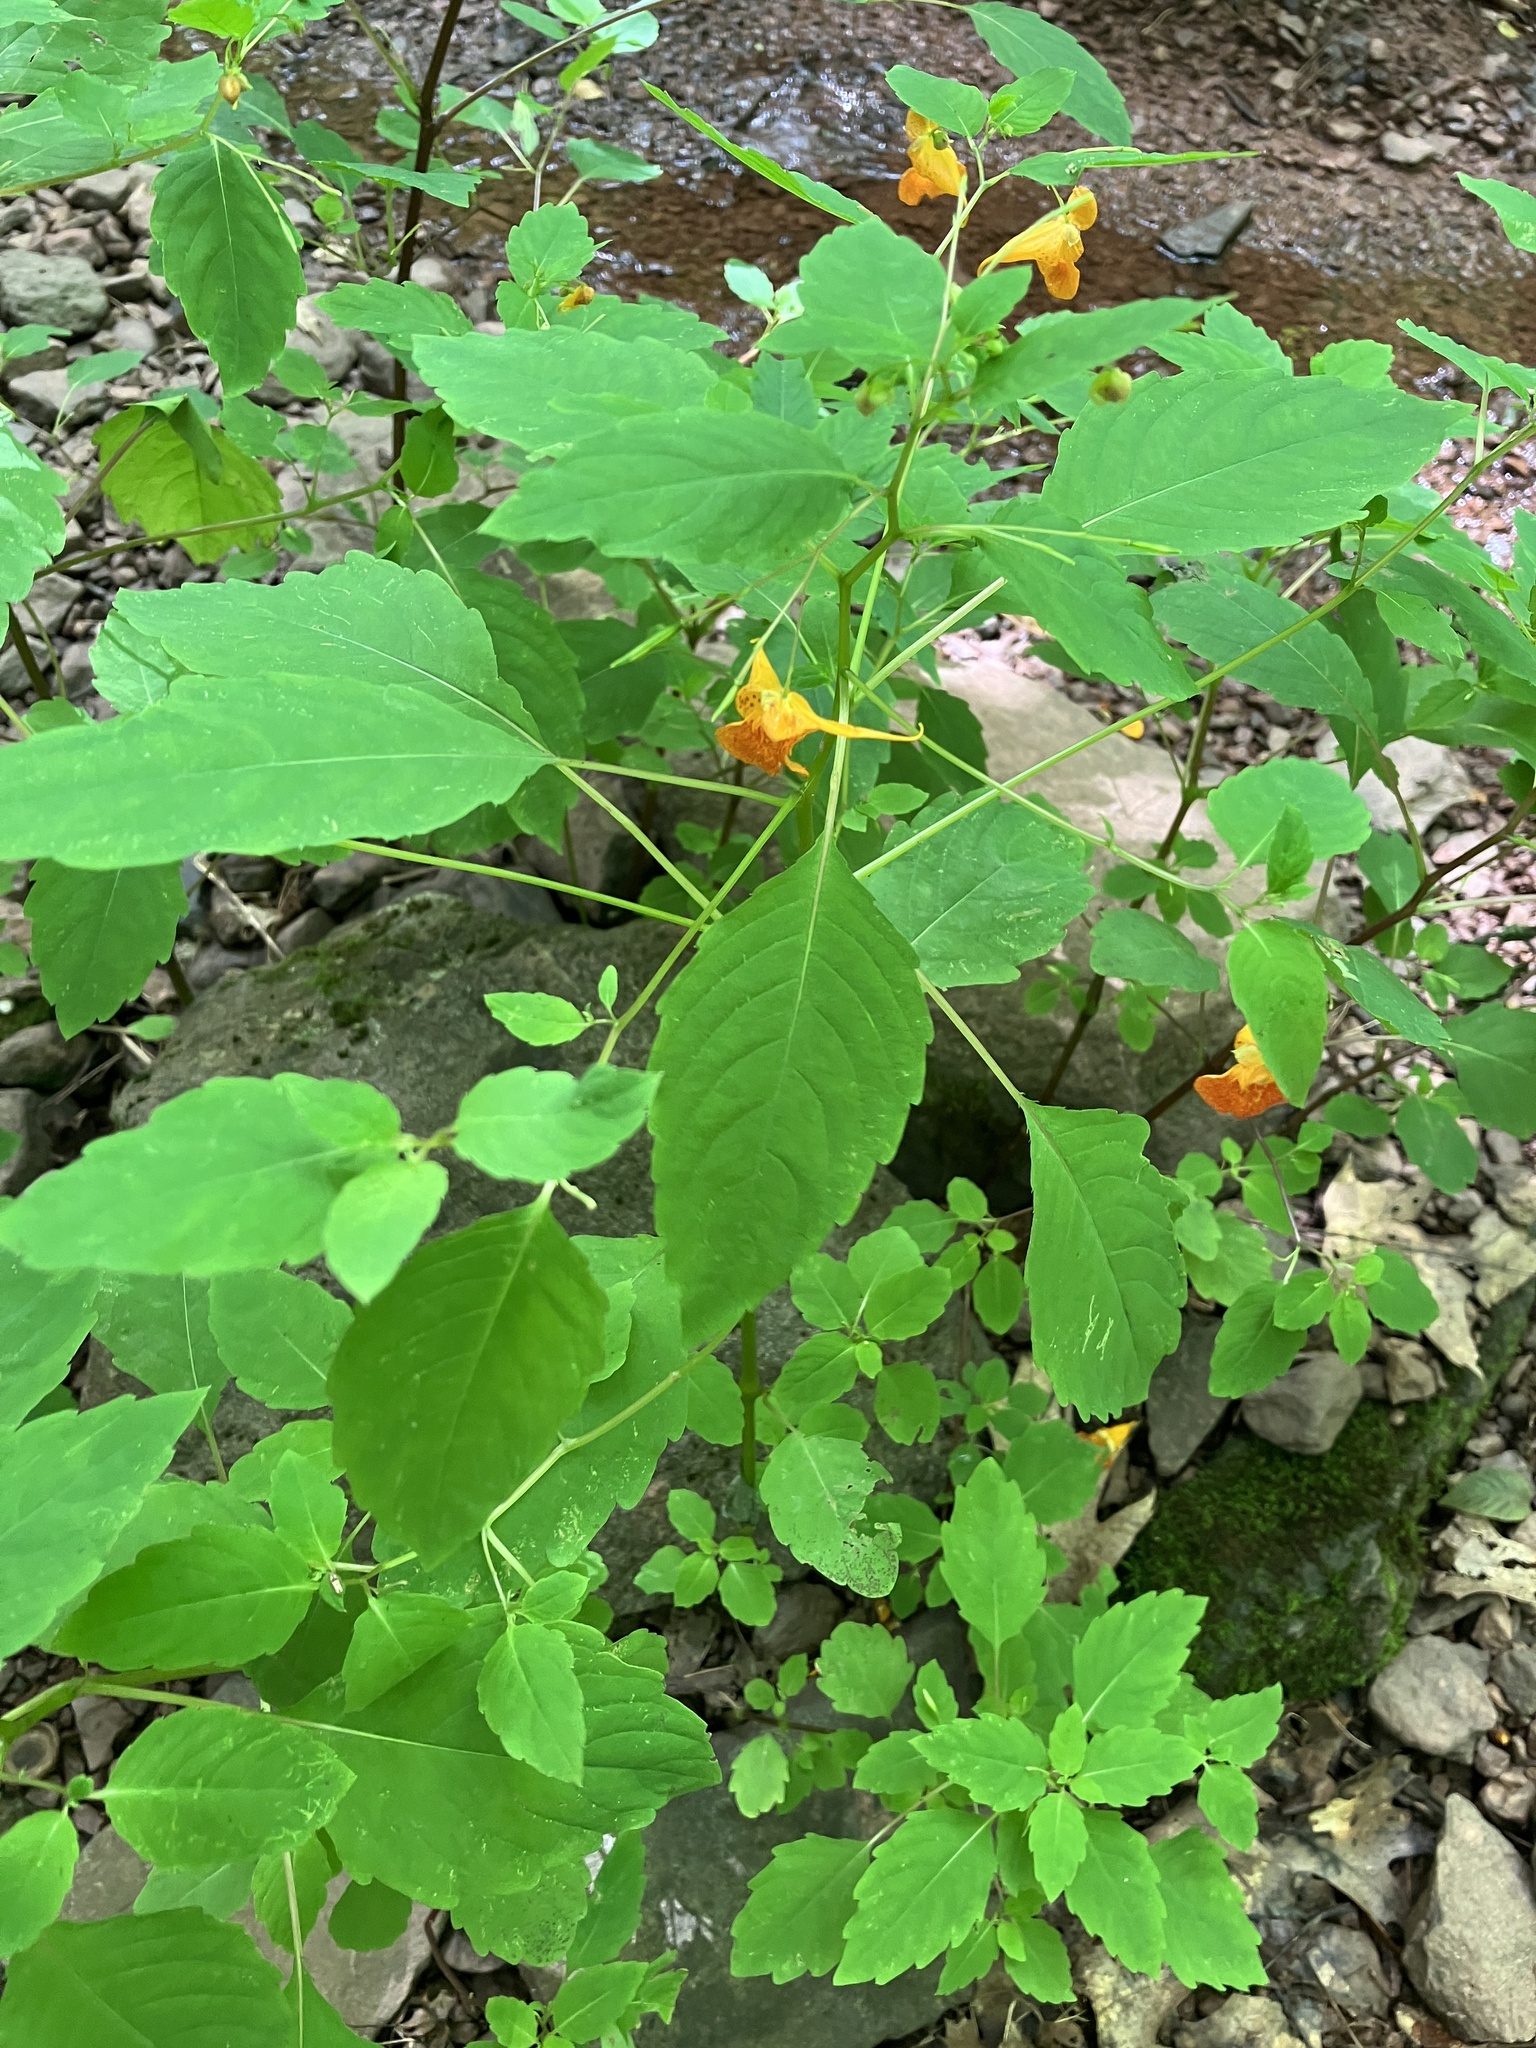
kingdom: Plantae
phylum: Tracheophyta
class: Magnoliopsida
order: Ericales
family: Balsaminaceae
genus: Impatiens
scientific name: Impatiens capensis
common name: Orange balsam
